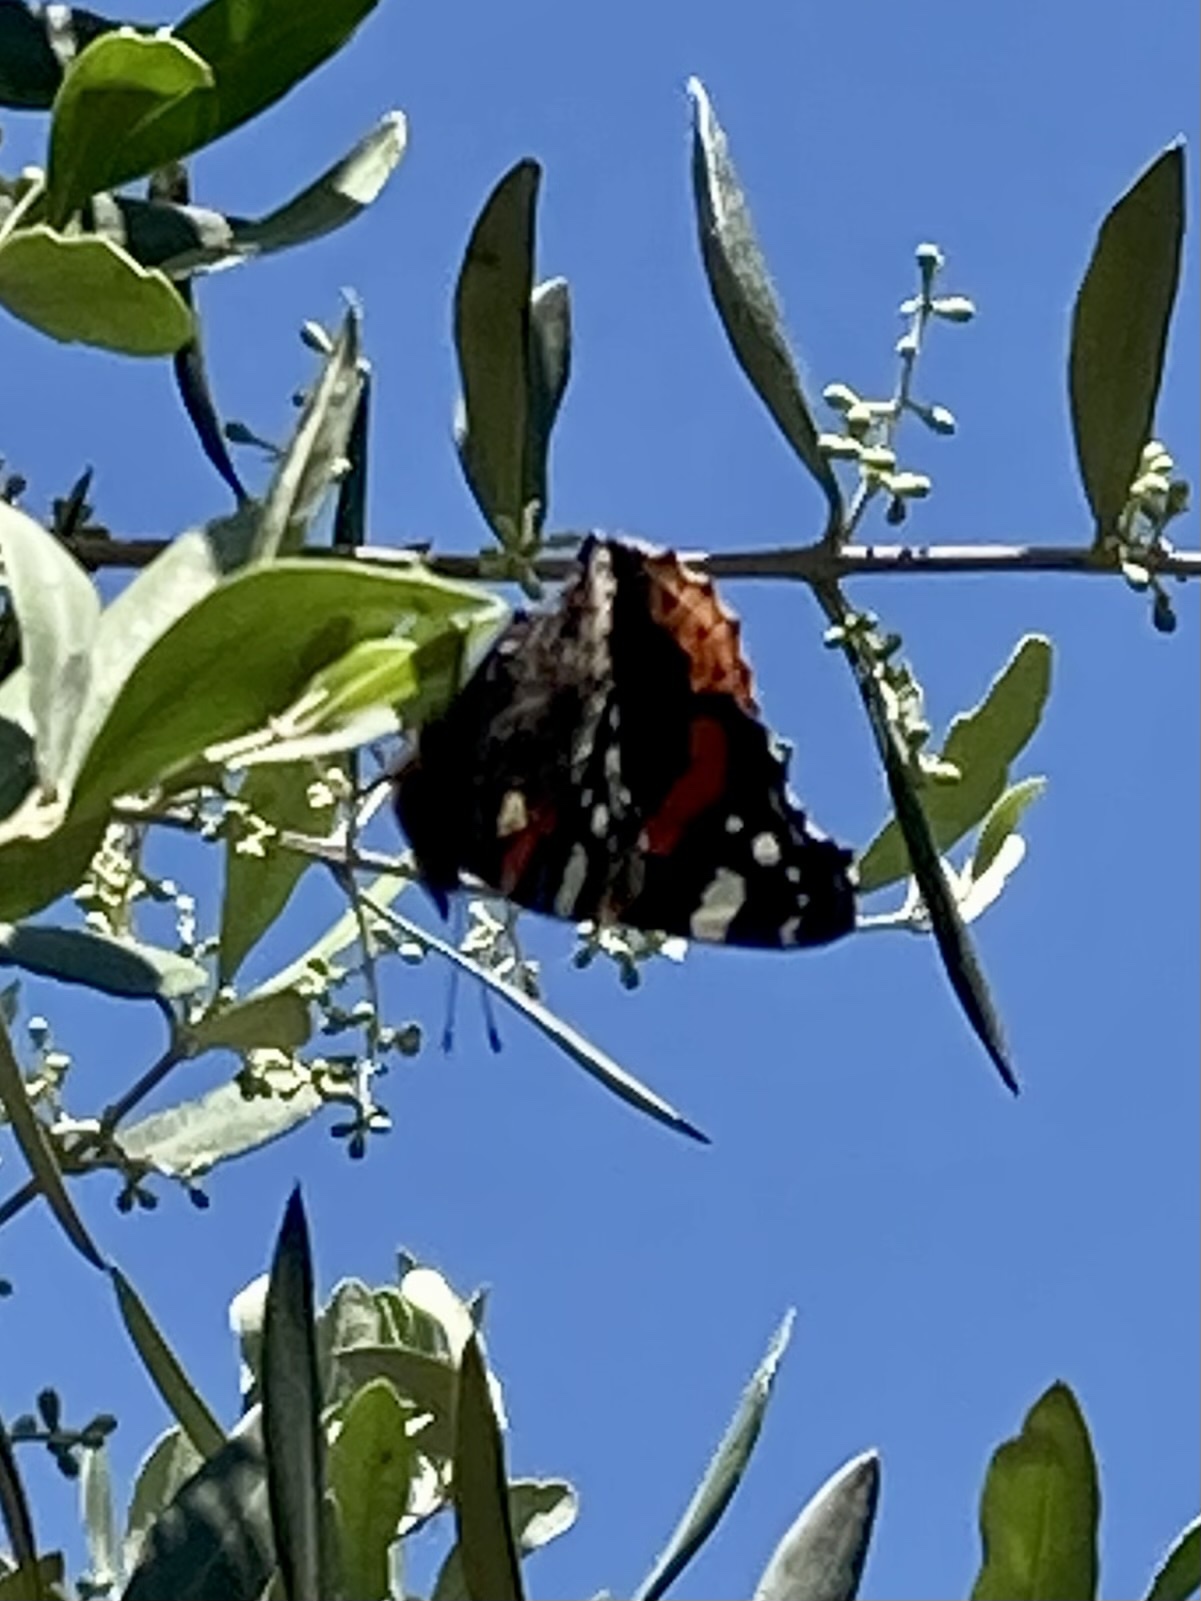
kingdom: Animalia
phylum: Arthropoda
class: Insecta
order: Lepidoptera
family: Nymphalidae
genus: Vanessa
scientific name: Vanessa atalanta
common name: Red admiral
